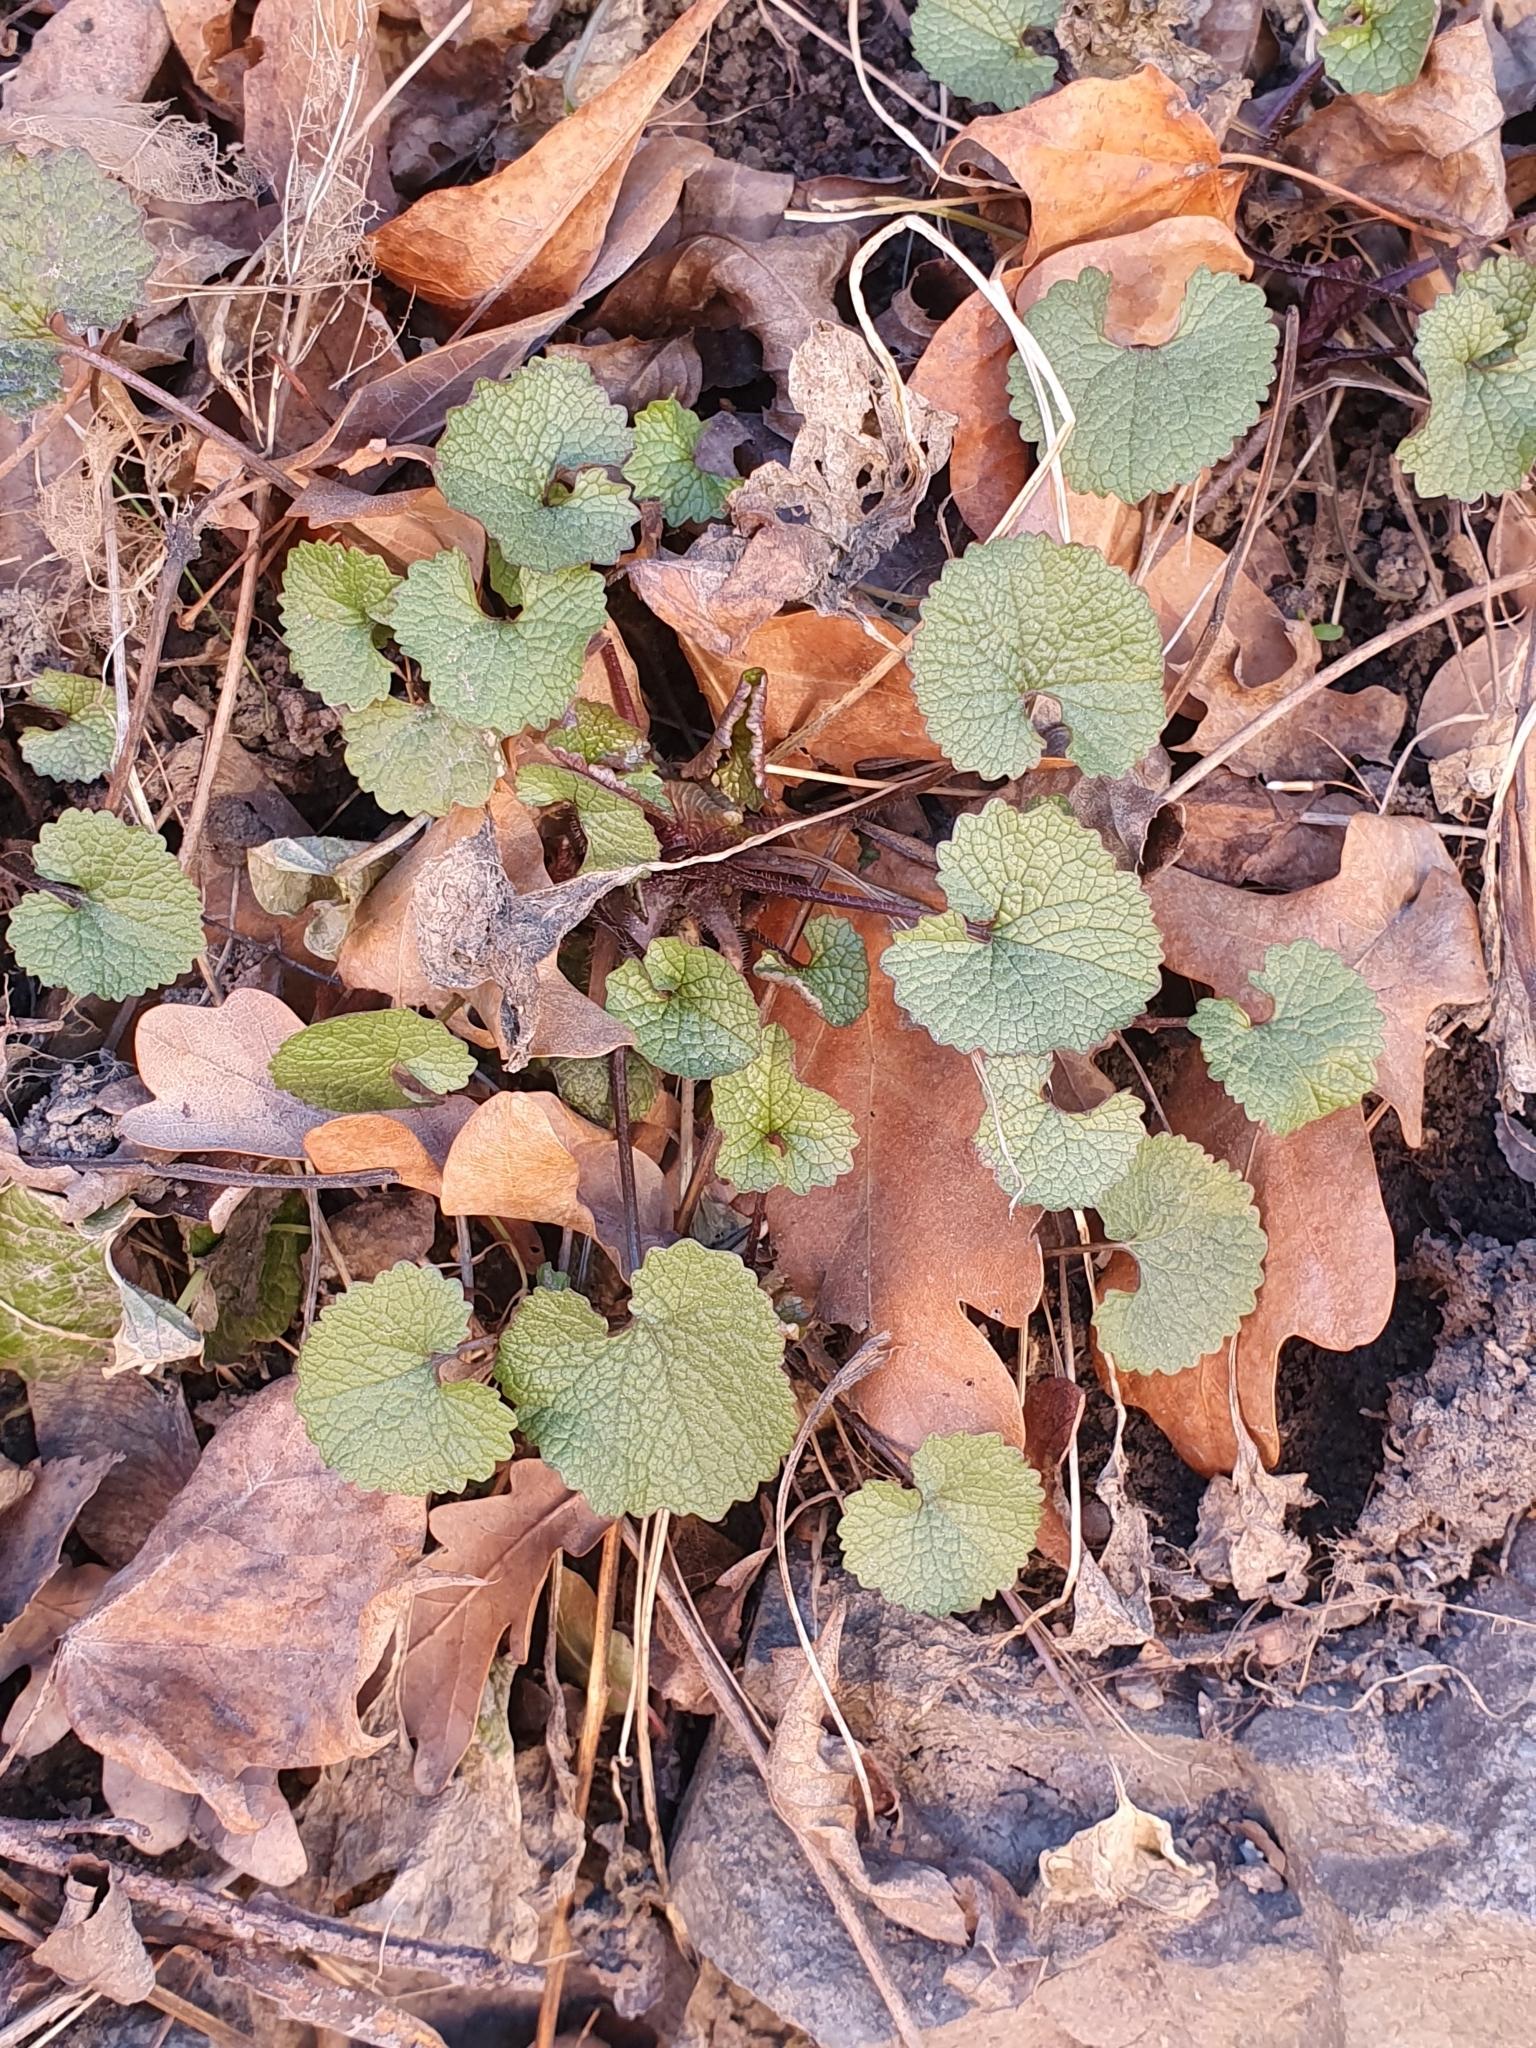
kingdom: Plantae
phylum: Tracheophyta
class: Magnoliopsida
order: Brassicales
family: Brassicaceae
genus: Alliaria
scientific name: Alliaria petiolata
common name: Garlic mustard
